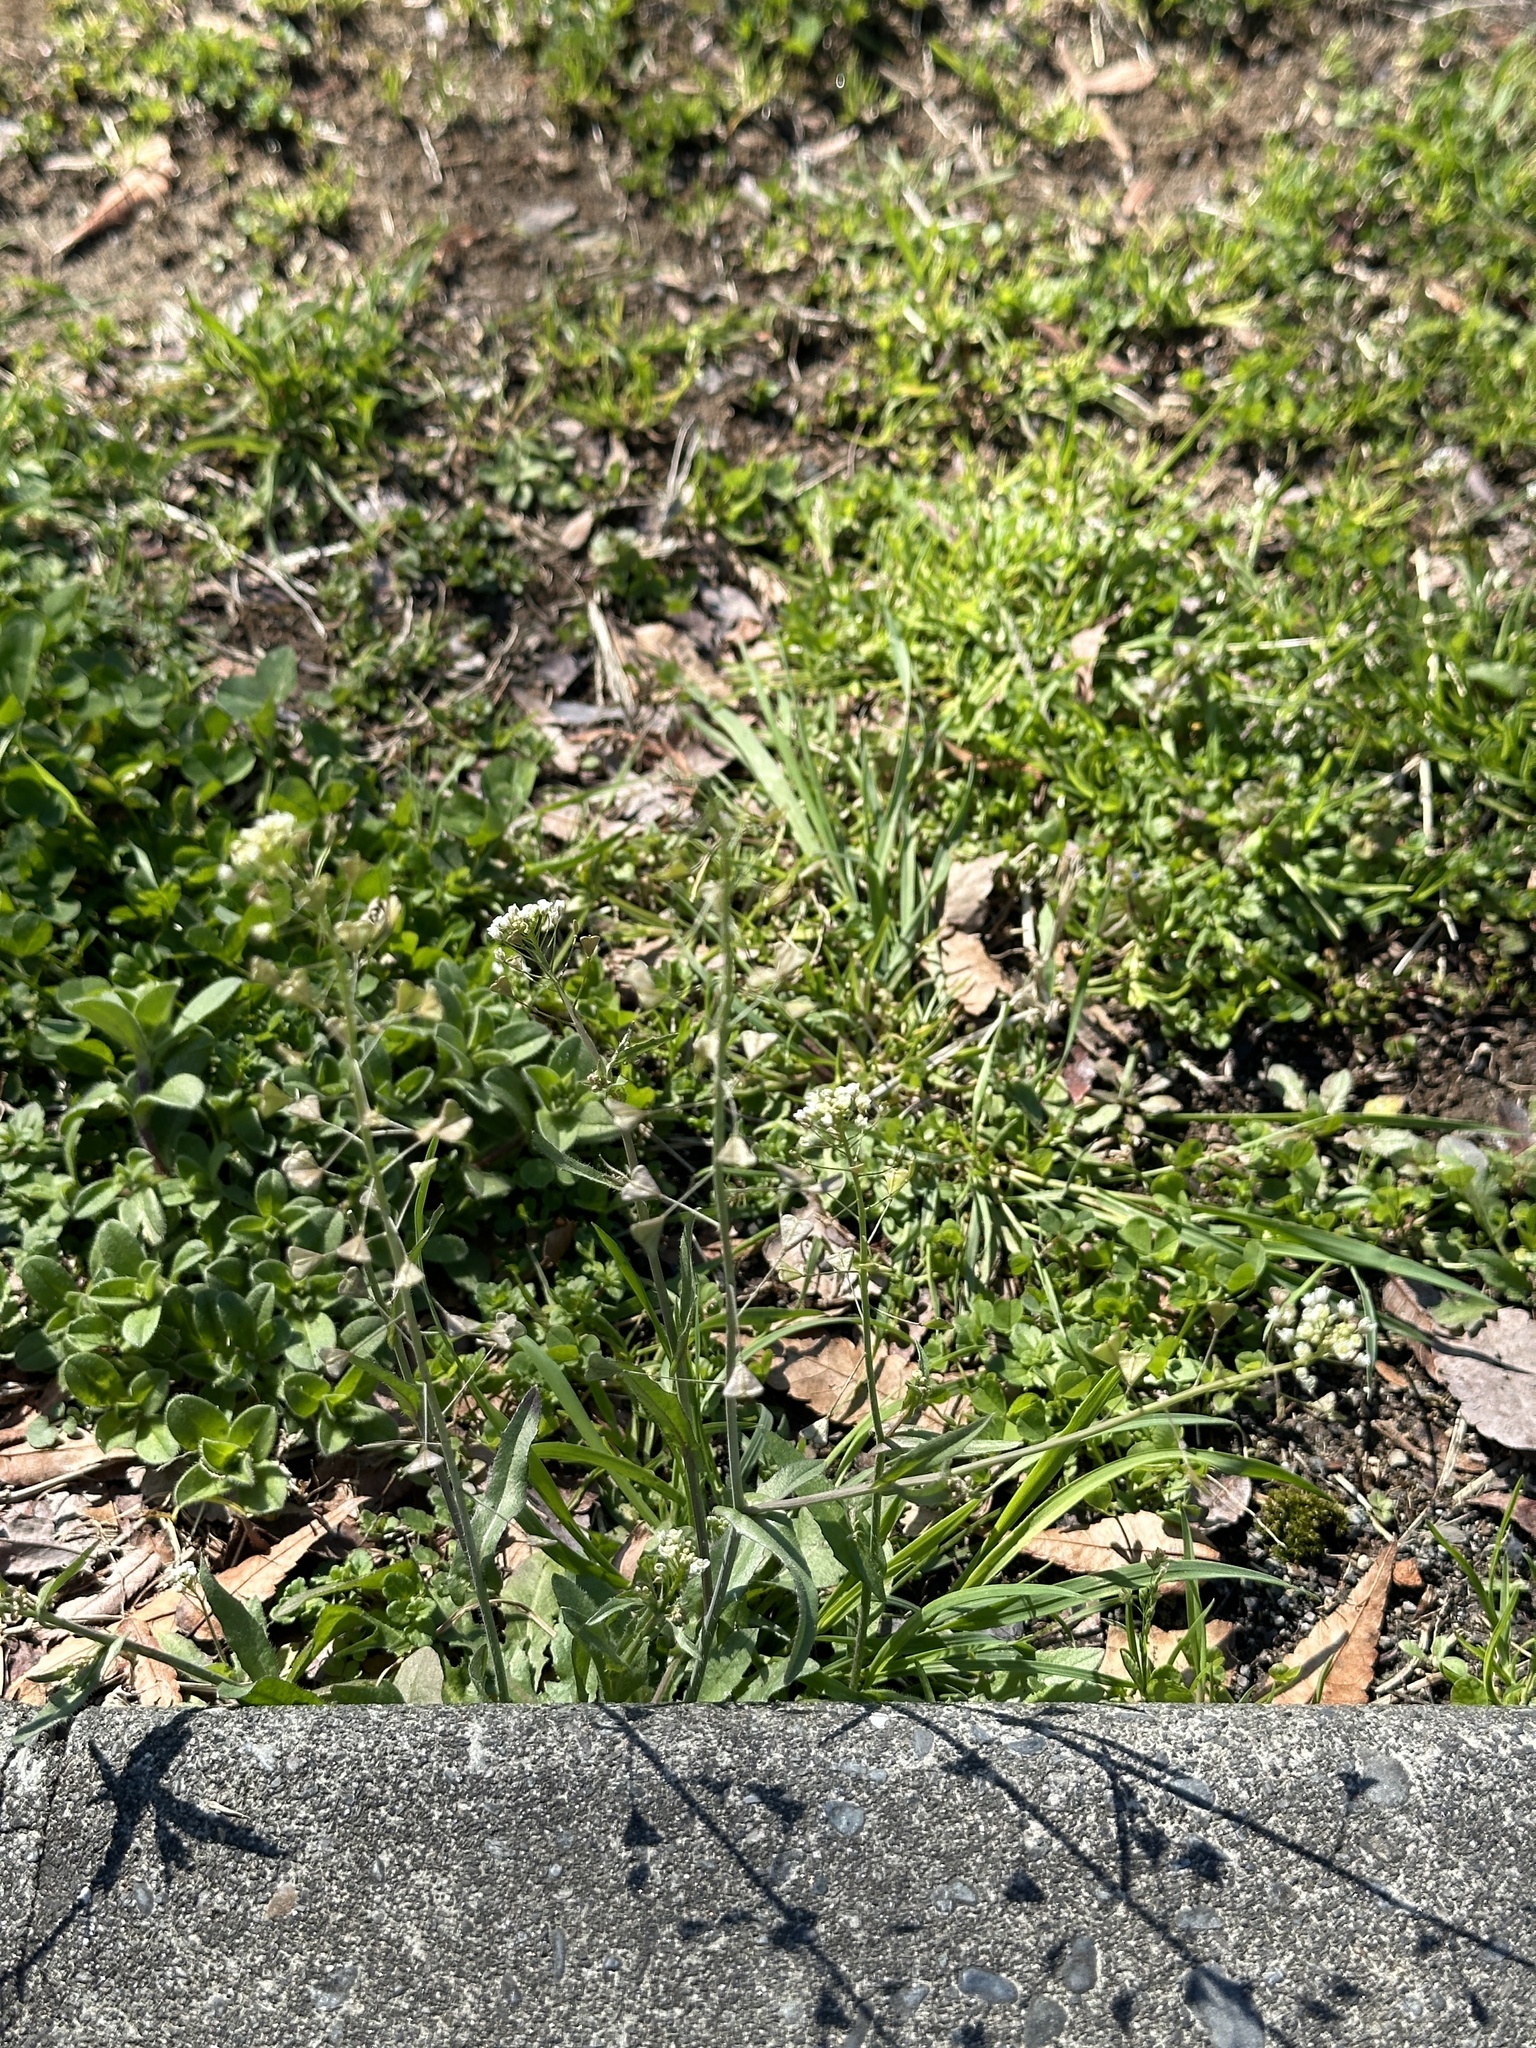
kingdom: Plantae
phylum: Tracheophyta
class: Magnoliopsida
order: Brassicales
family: Brassicaceae
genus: Capsella
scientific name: Capsella bursa-pastoris
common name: Shepherd's purse
